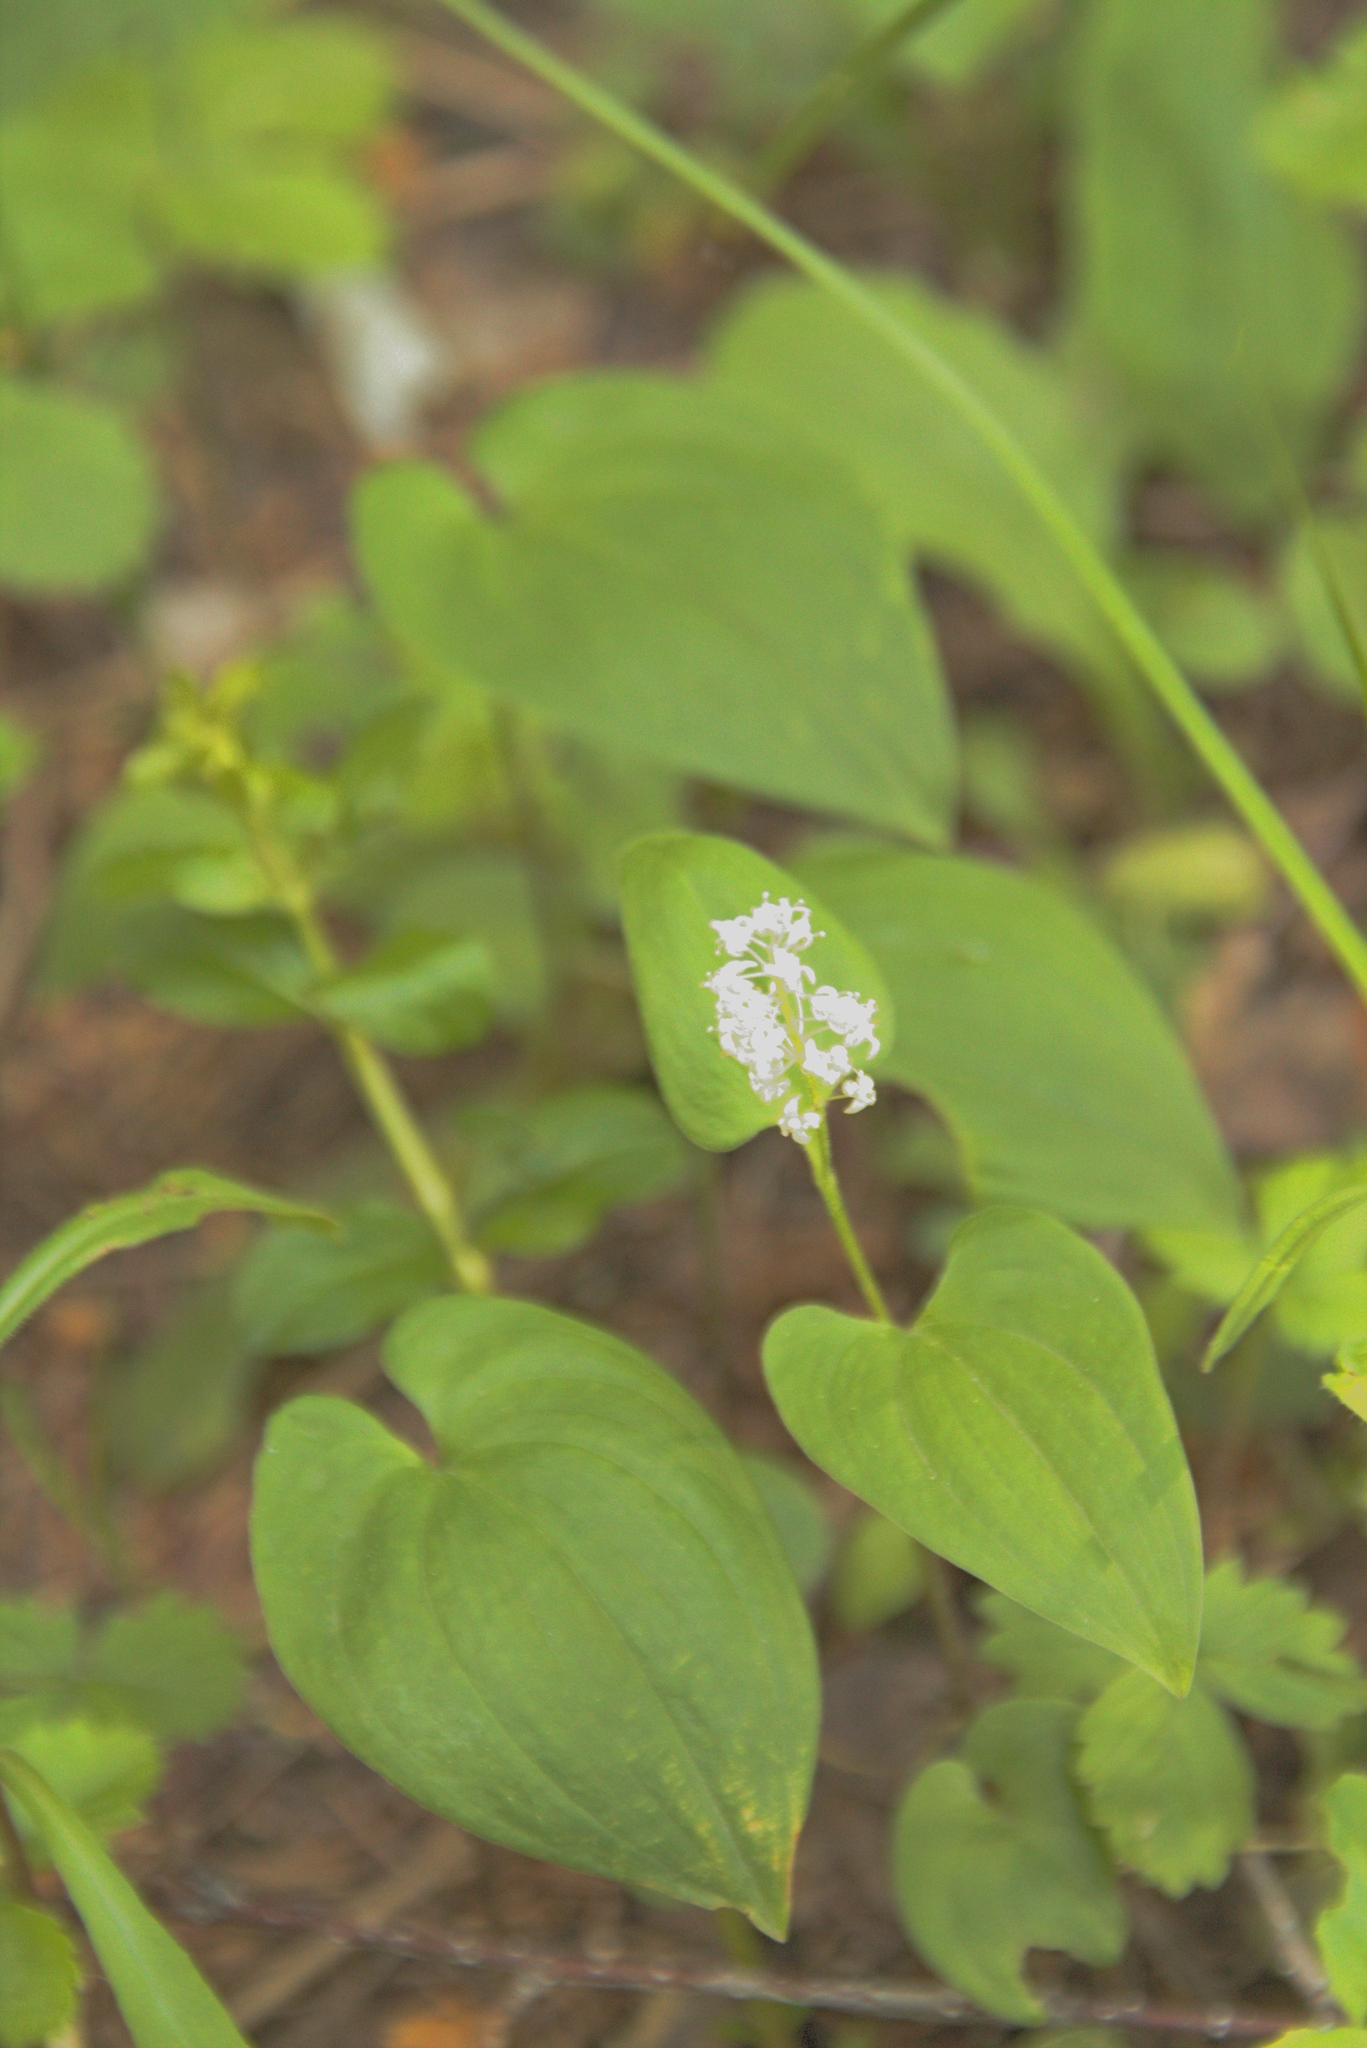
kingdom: Plantae
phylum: Tracheophyta
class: Liliopsida
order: Asparagales
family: Asparagaceae
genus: Maianthemum
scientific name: Maianthemum bifolium
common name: May lily
